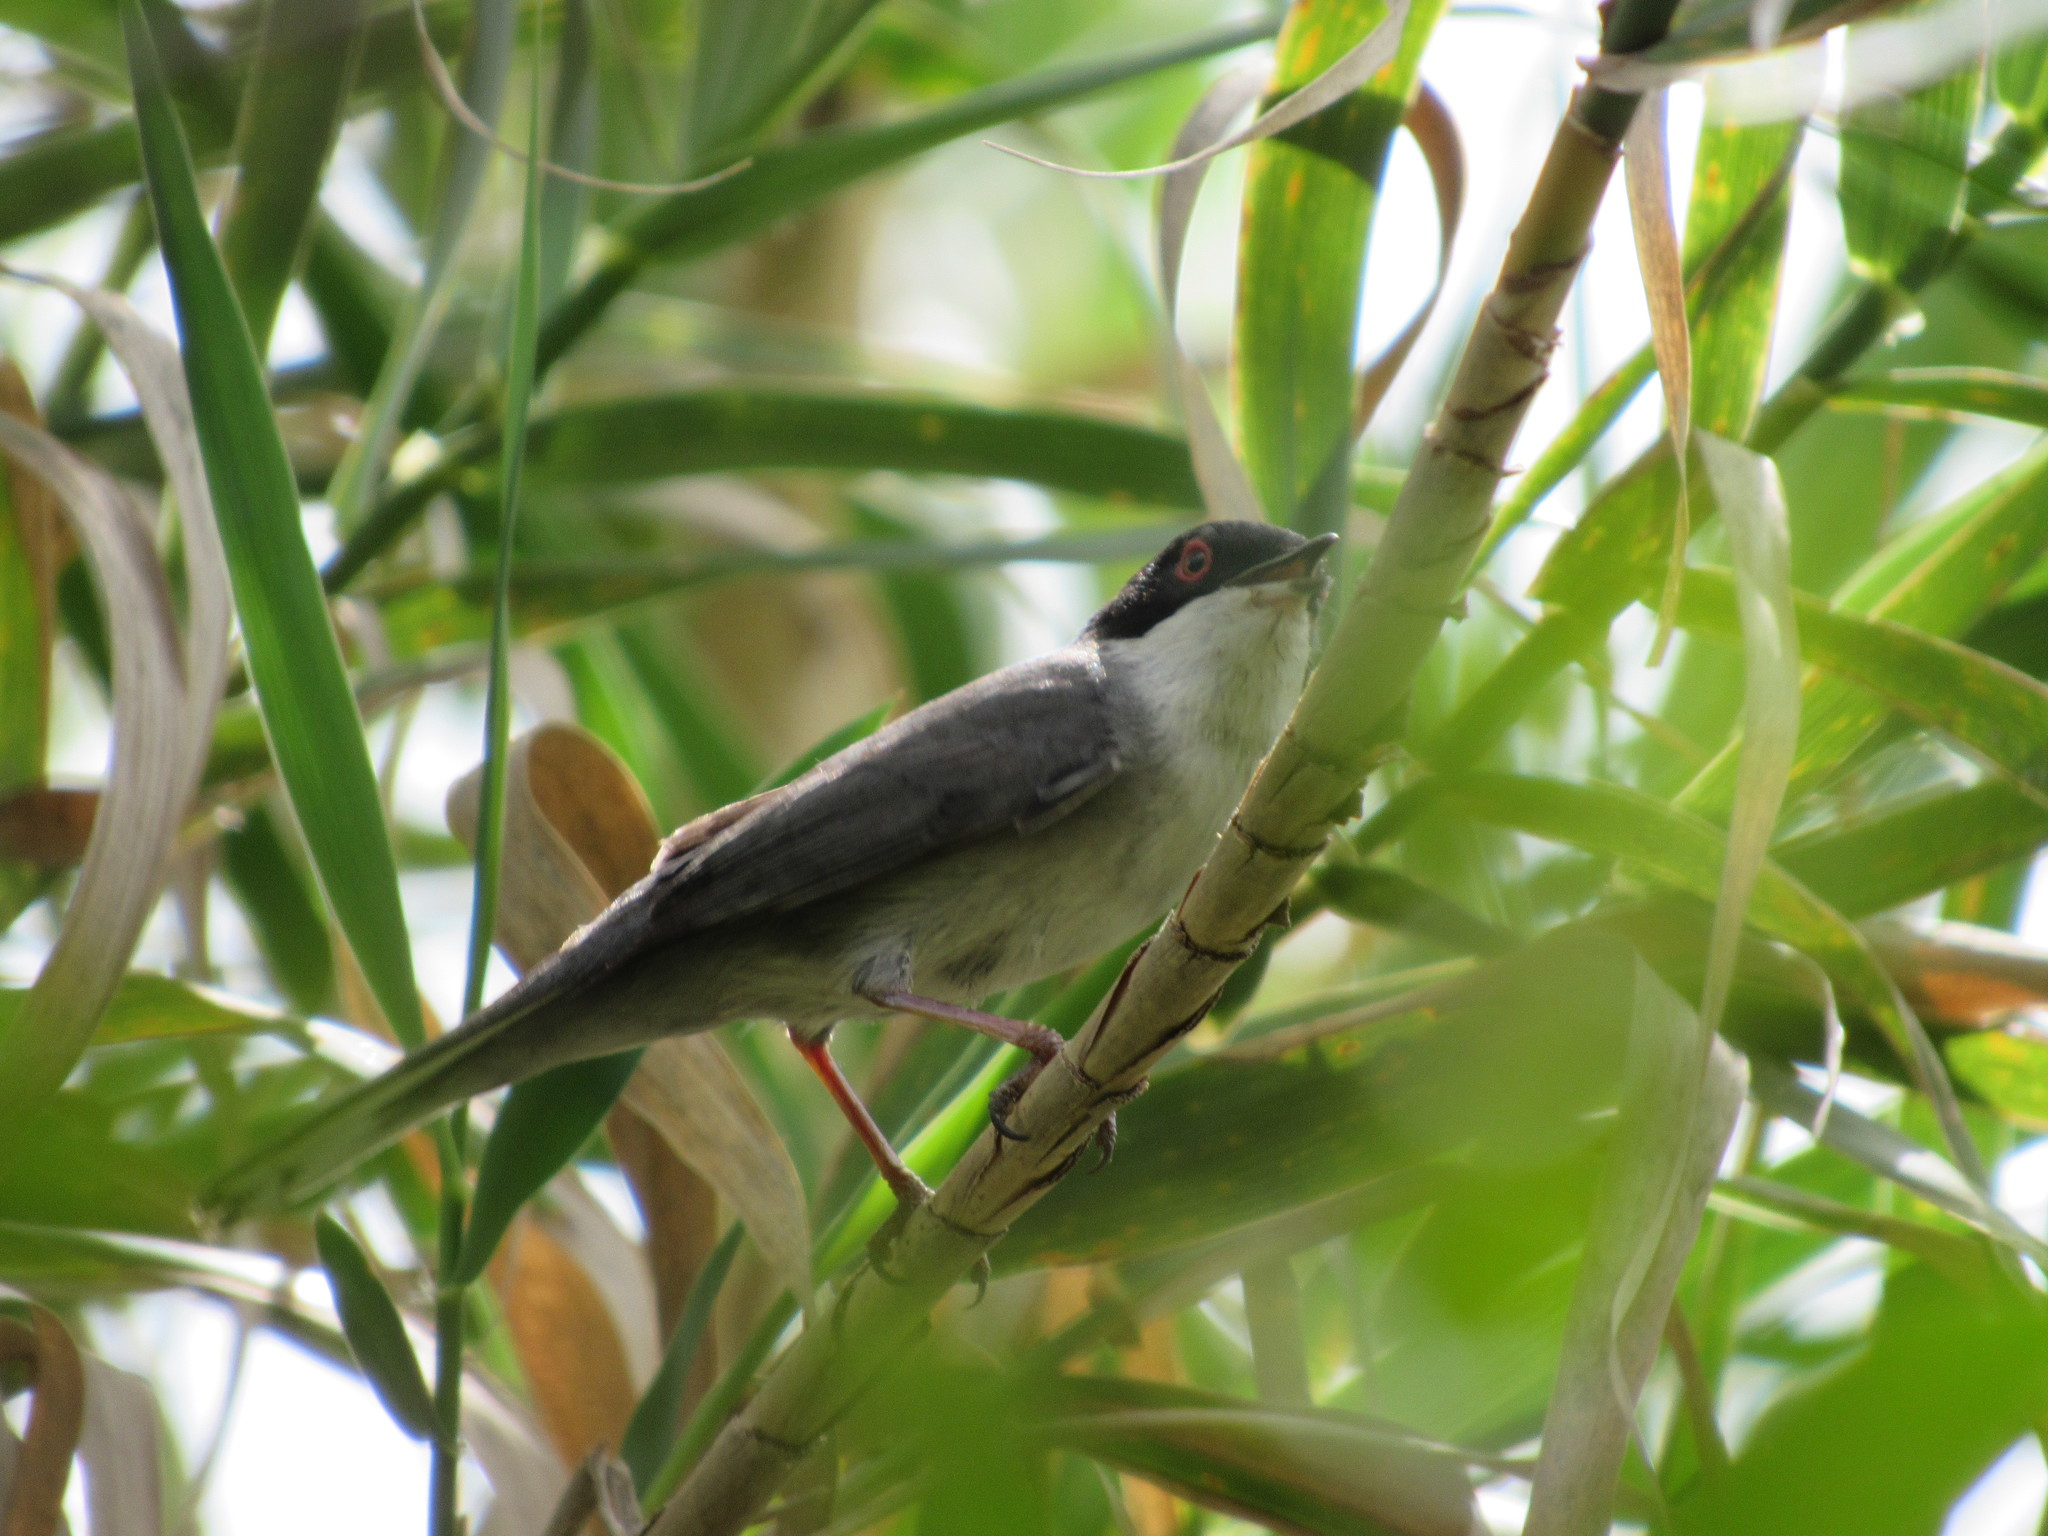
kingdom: Animalia
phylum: Chordata
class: Aves
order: Passeriformes
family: Sylviidae
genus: Curruca
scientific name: Curruca melanocephala
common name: Sardinian warbler
